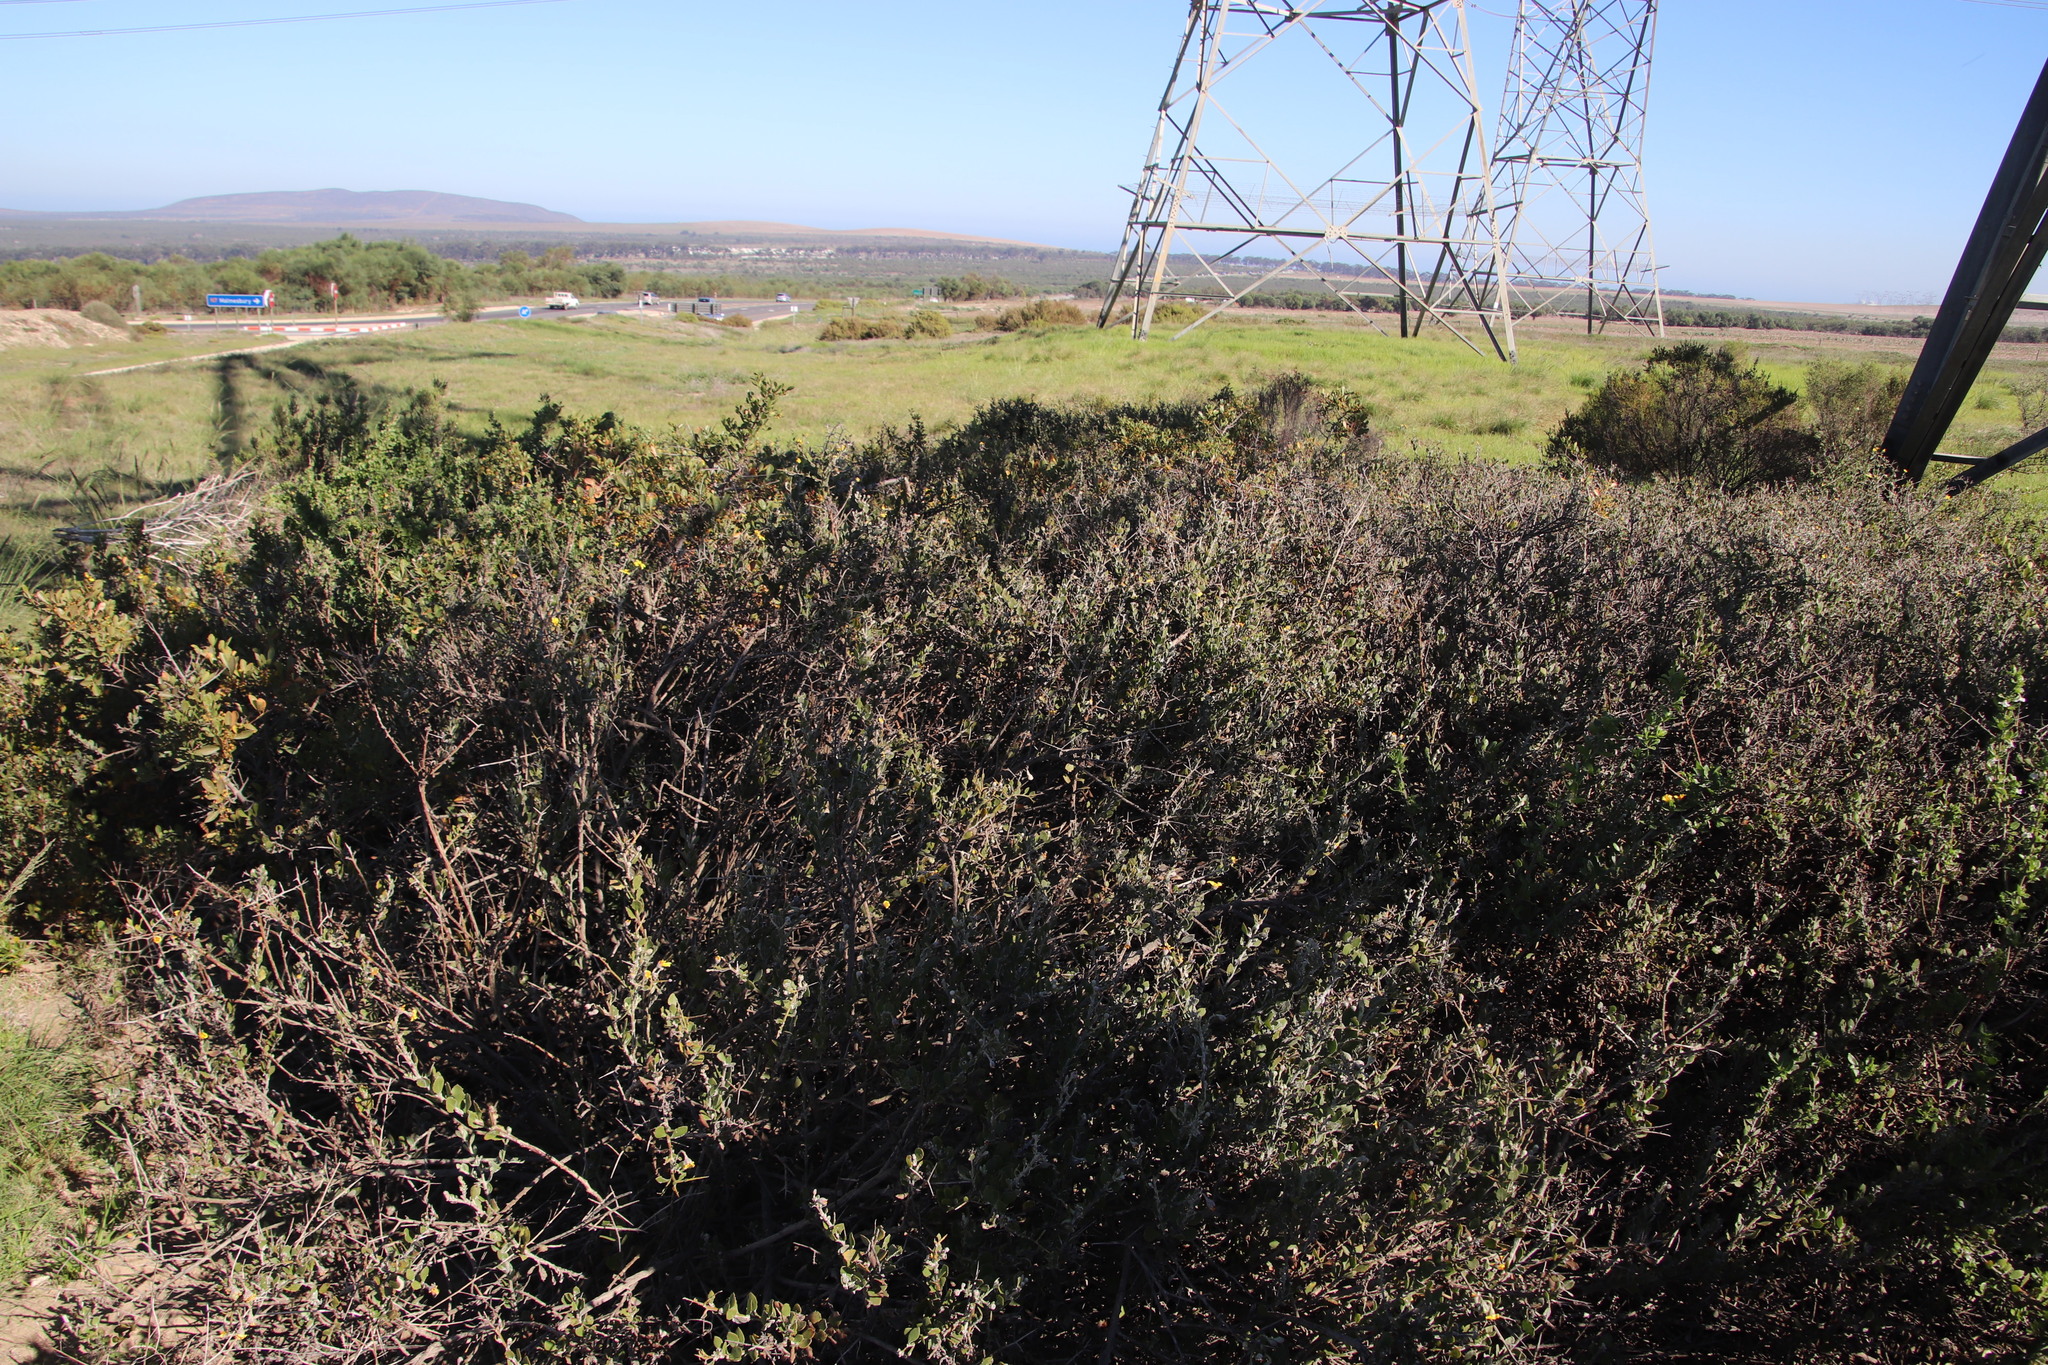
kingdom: Plantae
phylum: Tracheophyta
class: Magnoliopsida
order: Asterales
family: Asteraceae
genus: Osteospermum
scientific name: Osteospermum incanum
